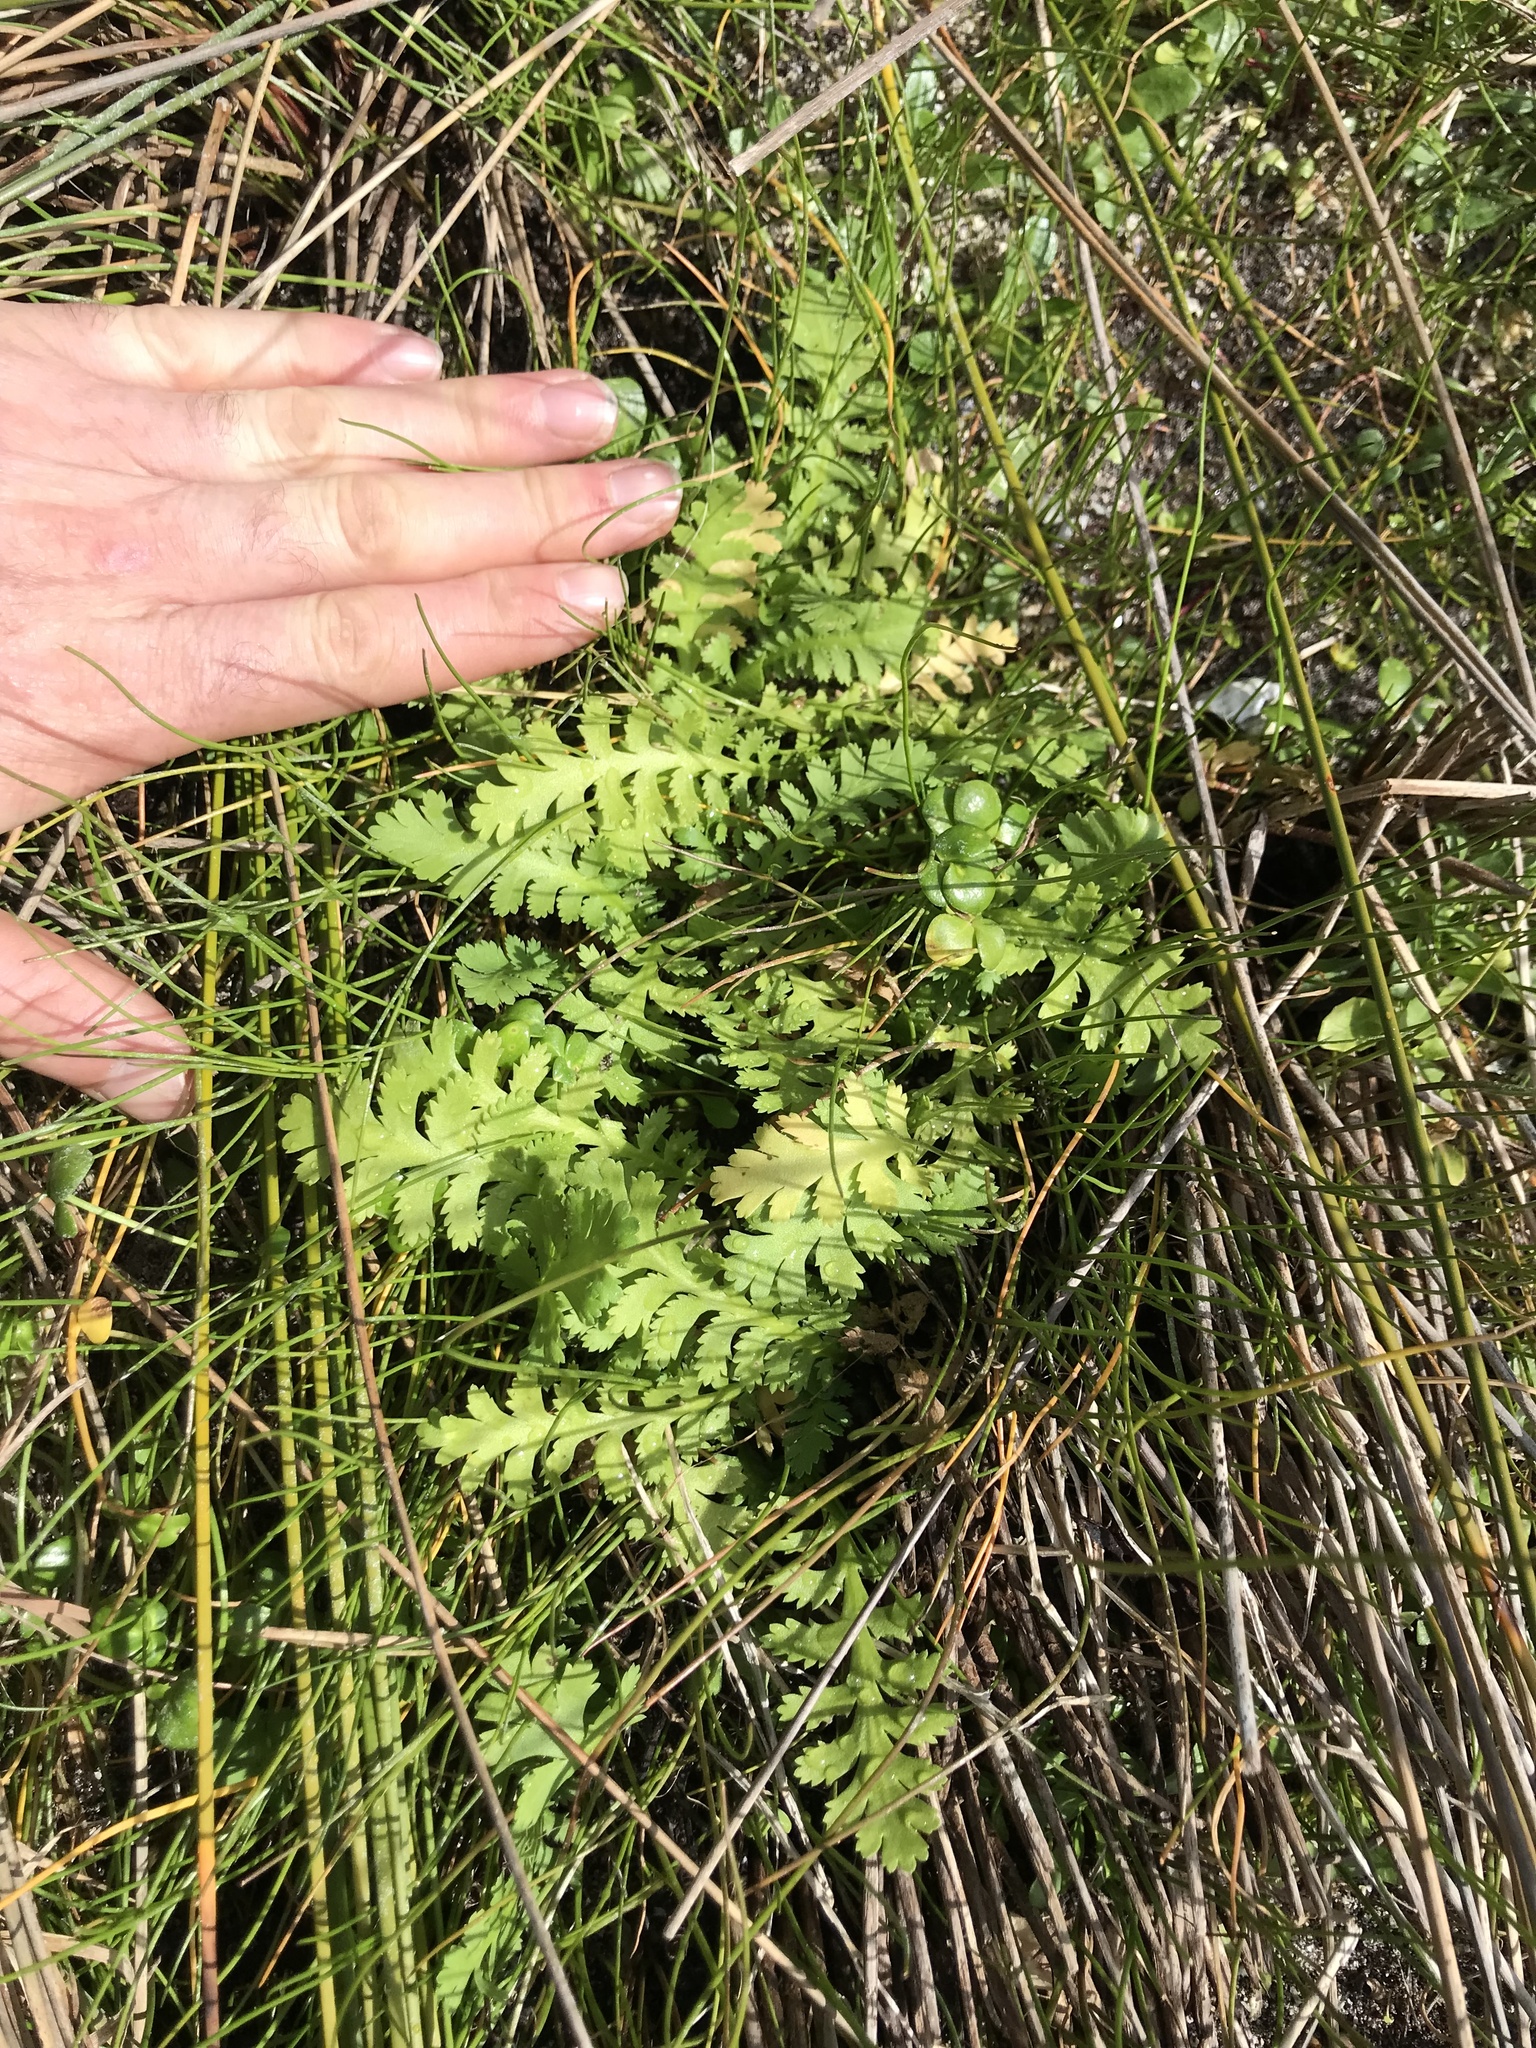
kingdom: Plantae
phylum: Tracheophyta
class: Magnoliopsida
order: Asterales
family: Asteraceae
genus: Leptinella
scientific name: Leptinella potentillina
